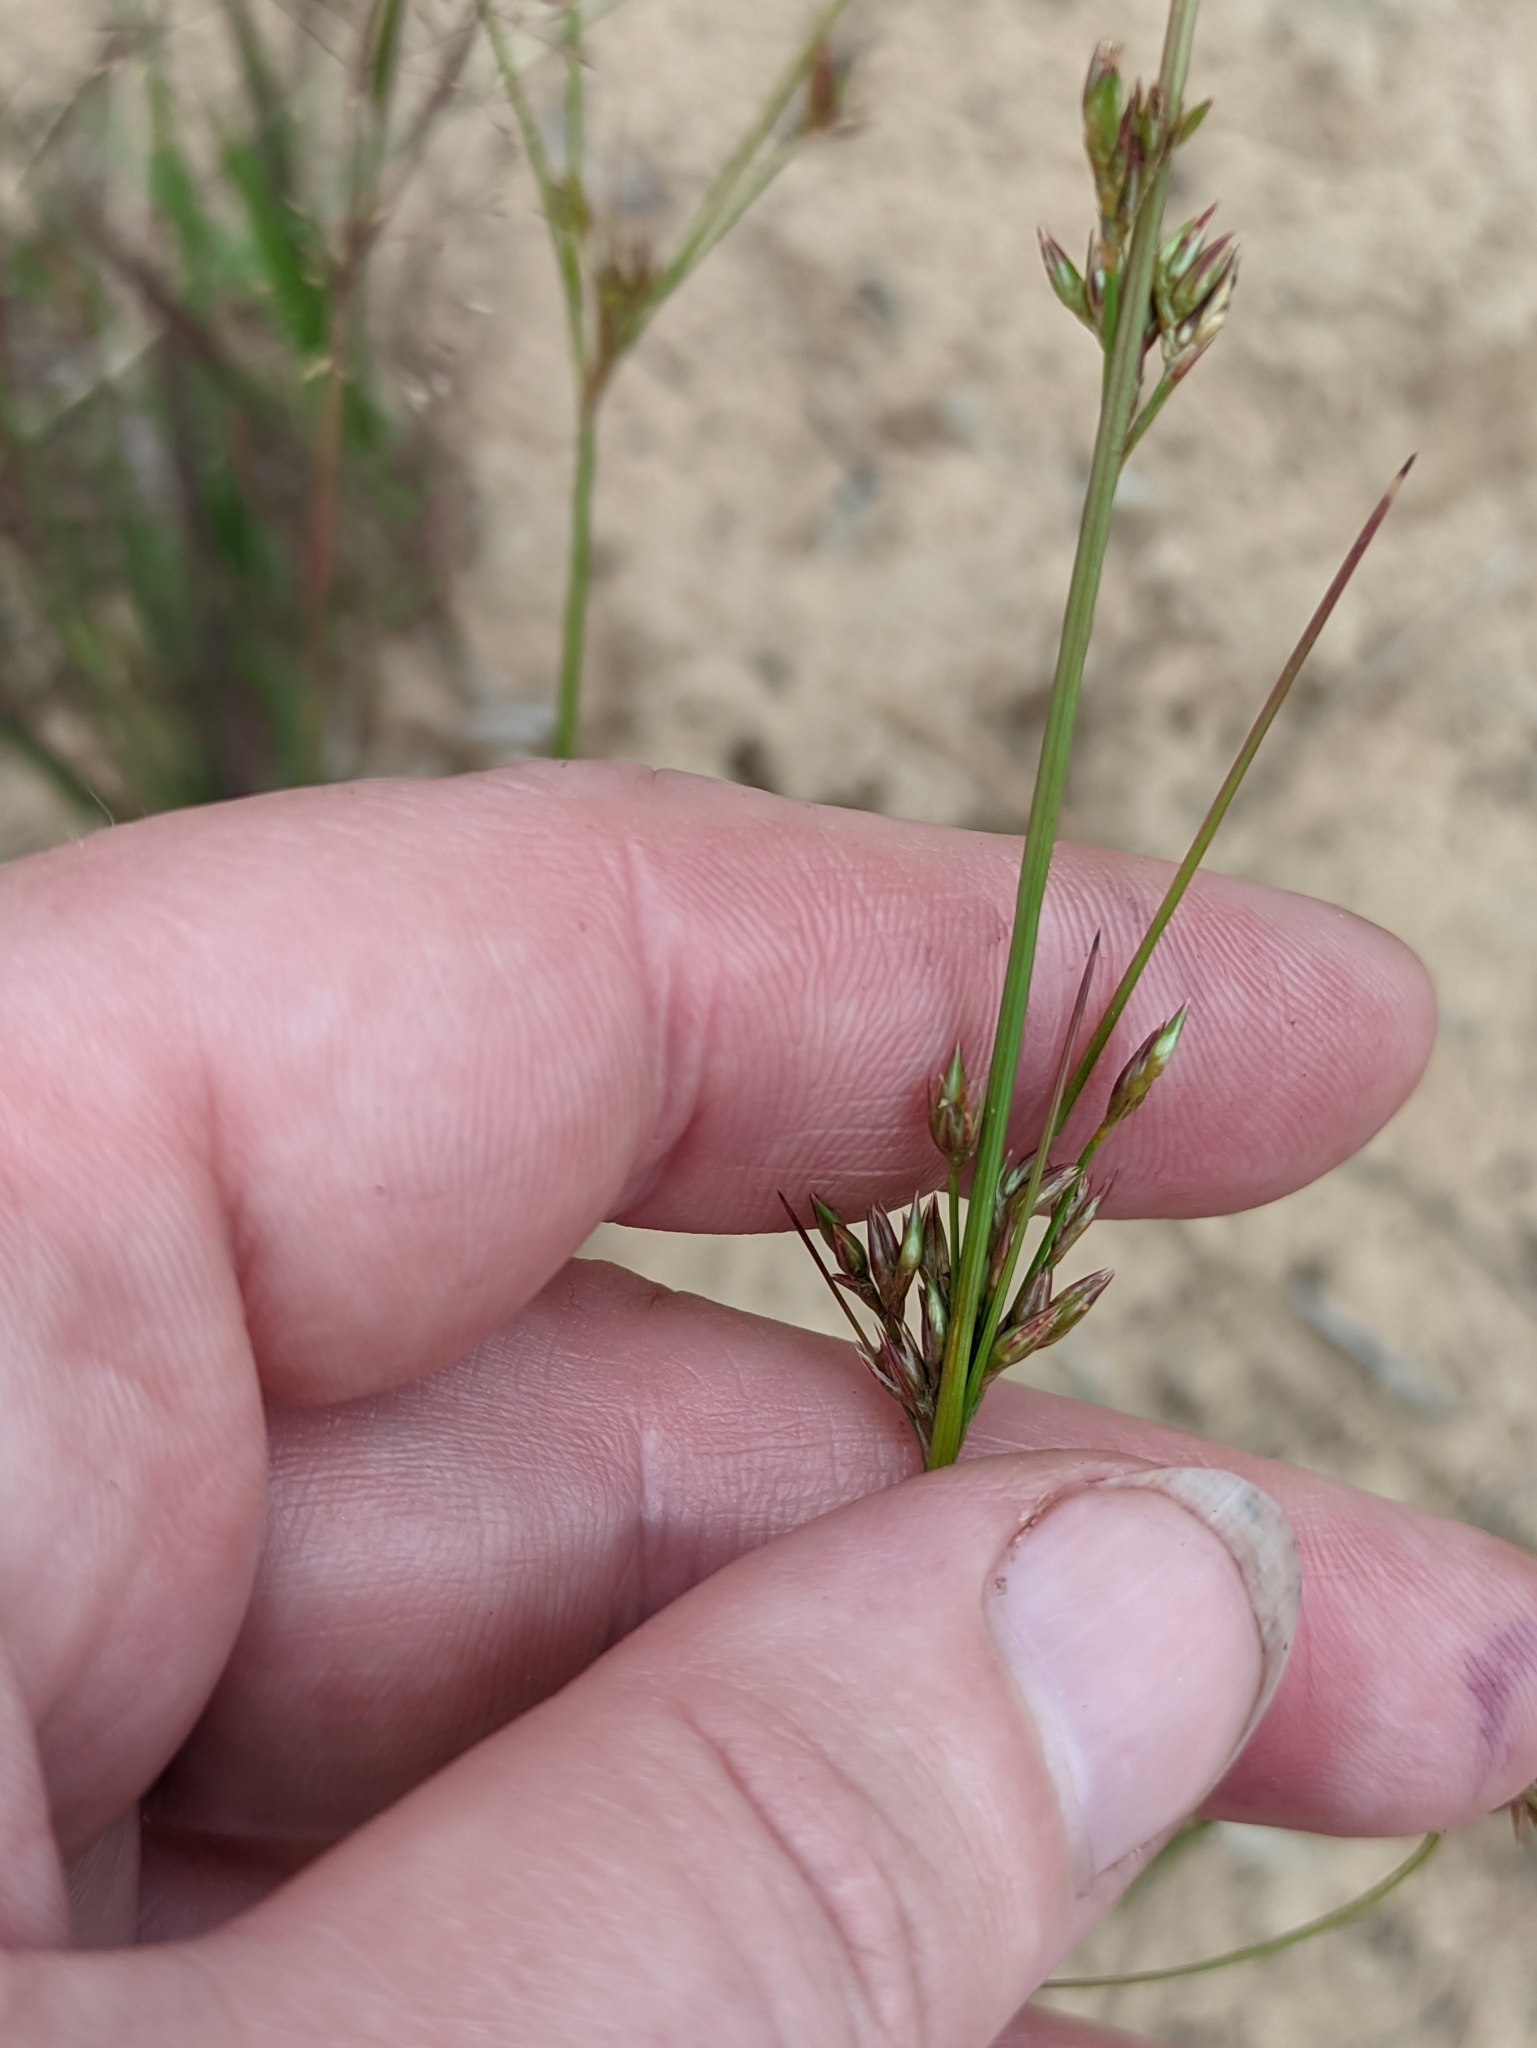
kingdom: Plantae
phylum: Tracheophyta
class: Liliopsida
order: Poales
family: Juncaceae
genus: Juncus
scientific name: Juncus tenuis
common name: Slender rush
